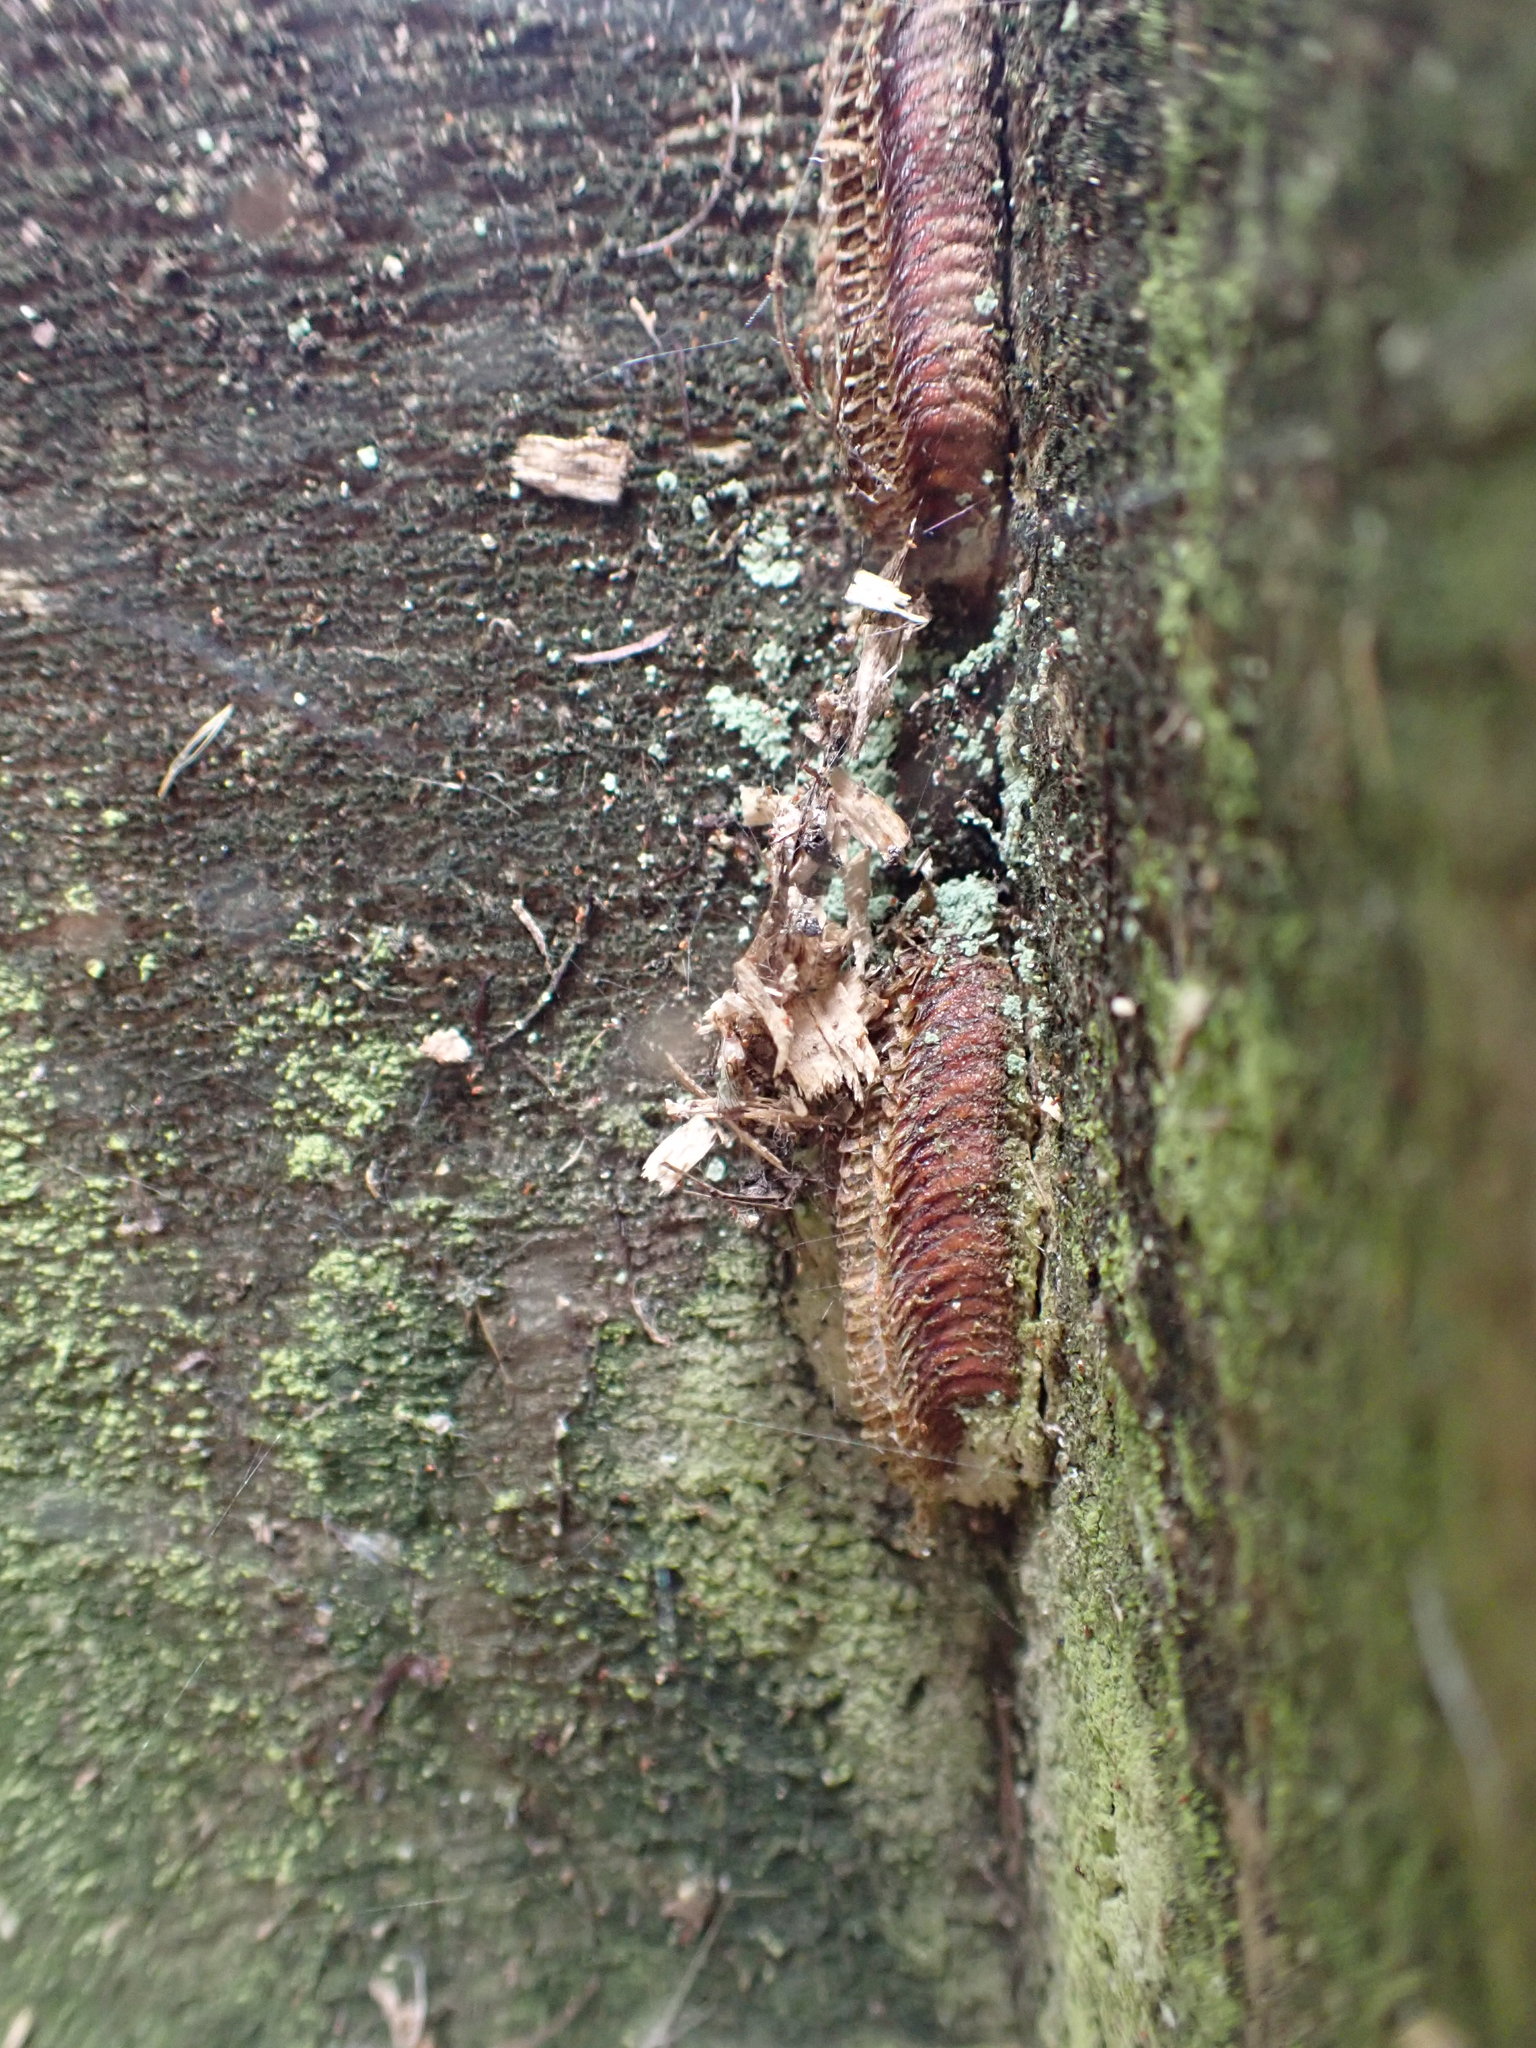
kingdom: Animalia
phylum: Arthropoda
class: Insecta
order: Mantodea
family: Miomantidae
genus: Miomantis
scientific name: Miomantis caffra
